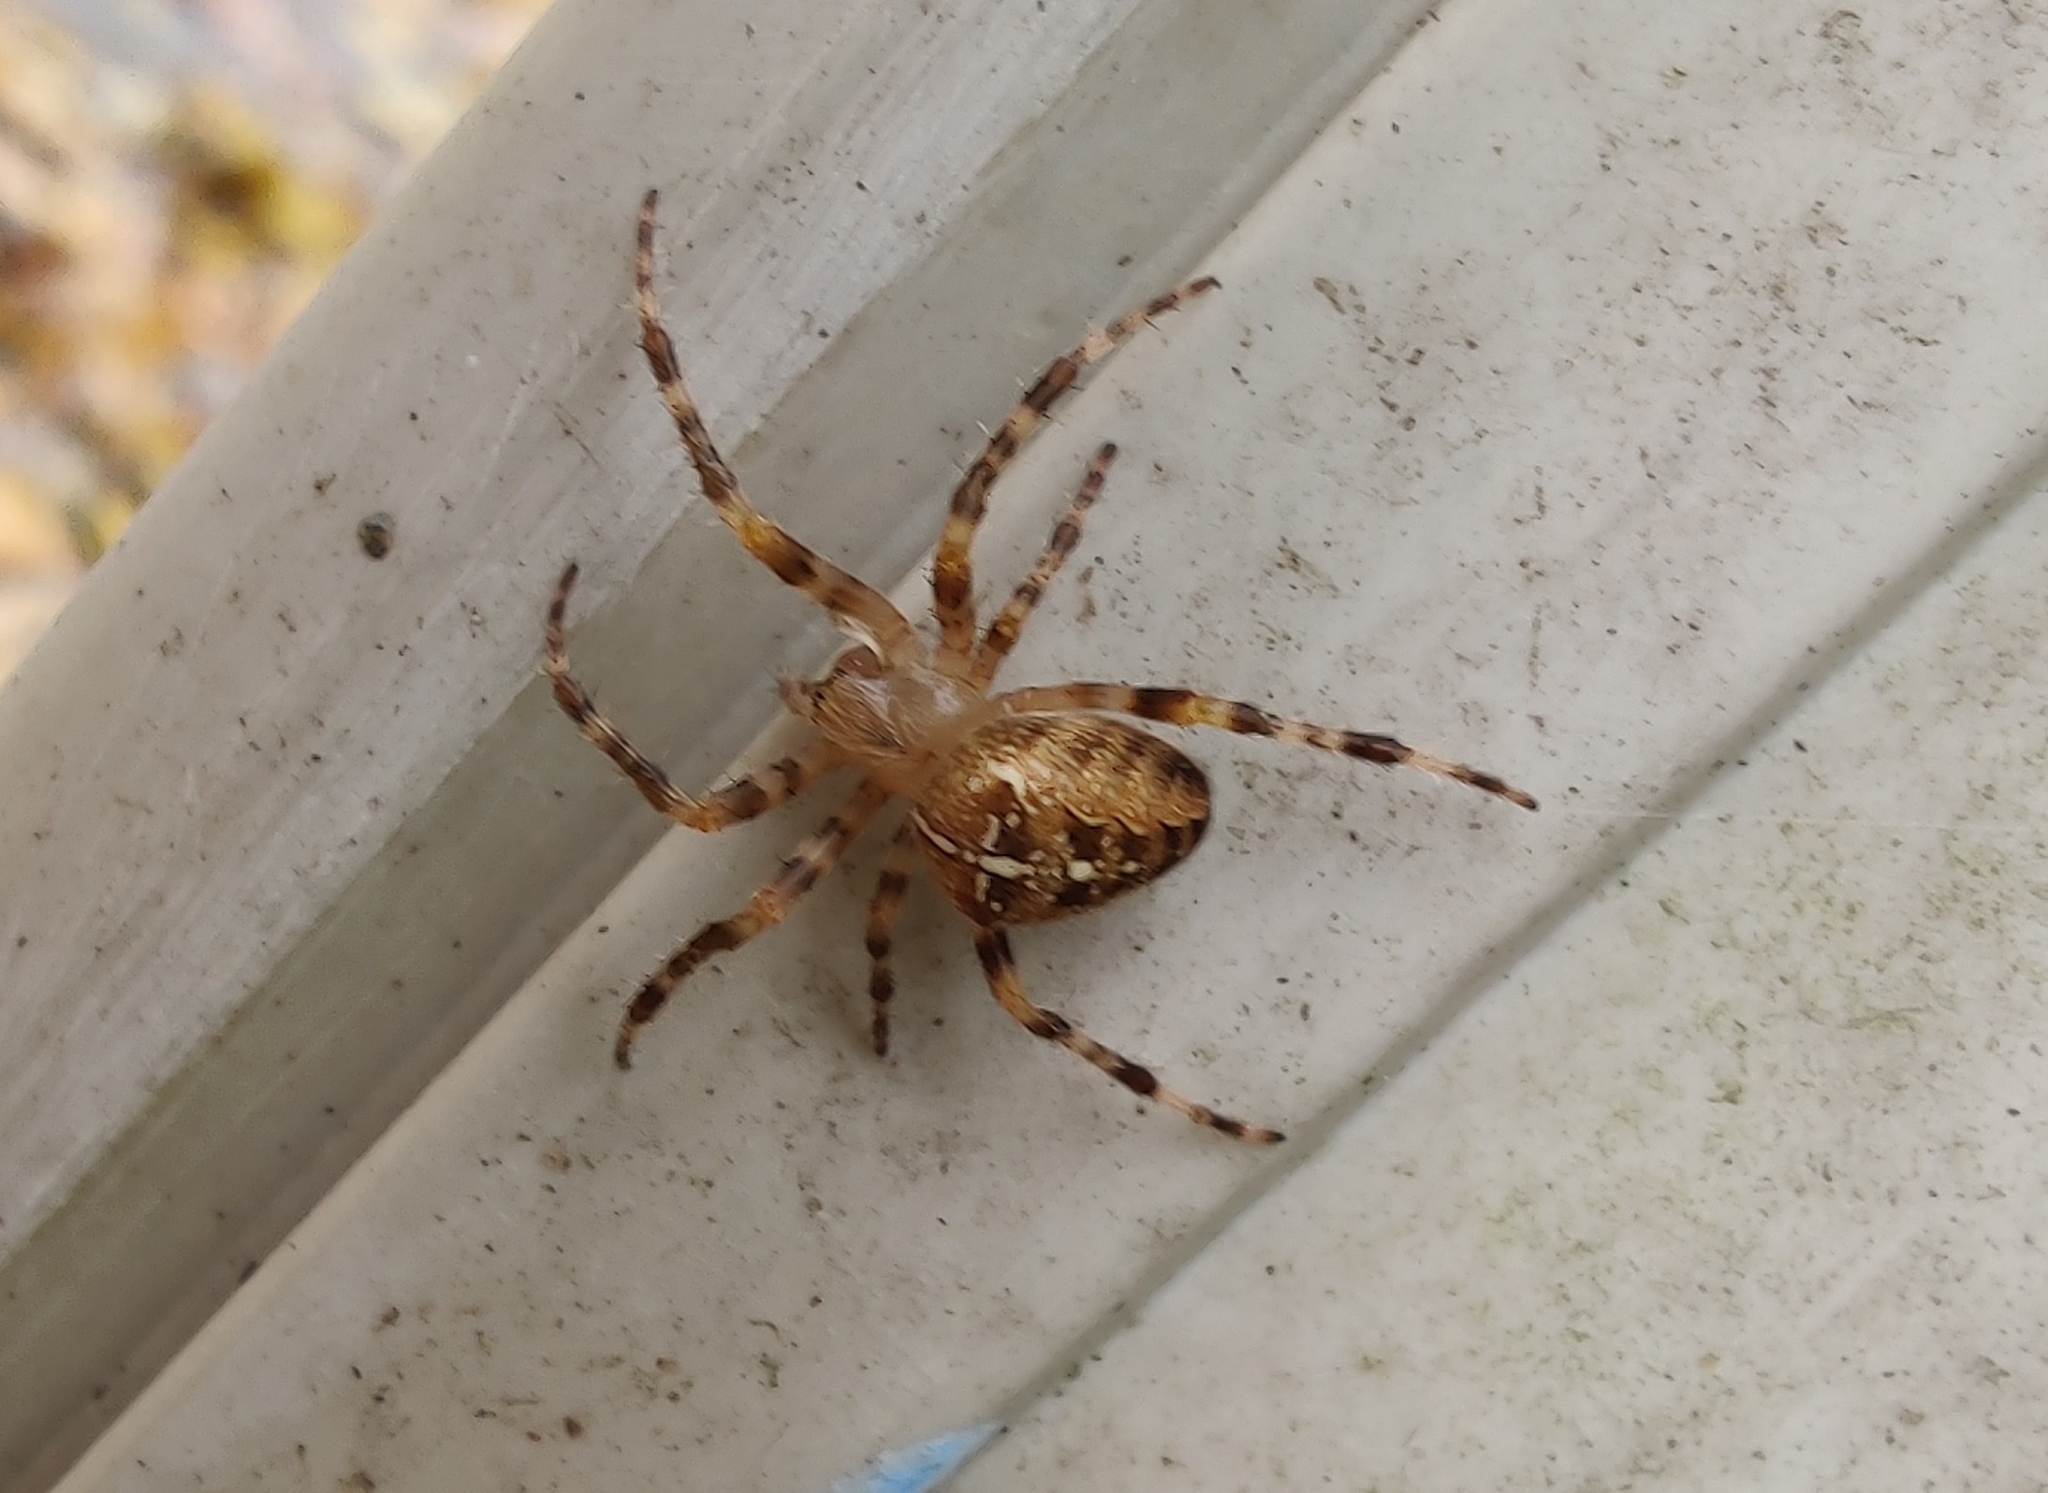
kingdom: Animalia
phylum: Arthropoda
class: Arachnida
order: Araneae
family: Araneidae
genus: Araneus
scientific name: Araneus diadematus
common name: Cross orbweaver
